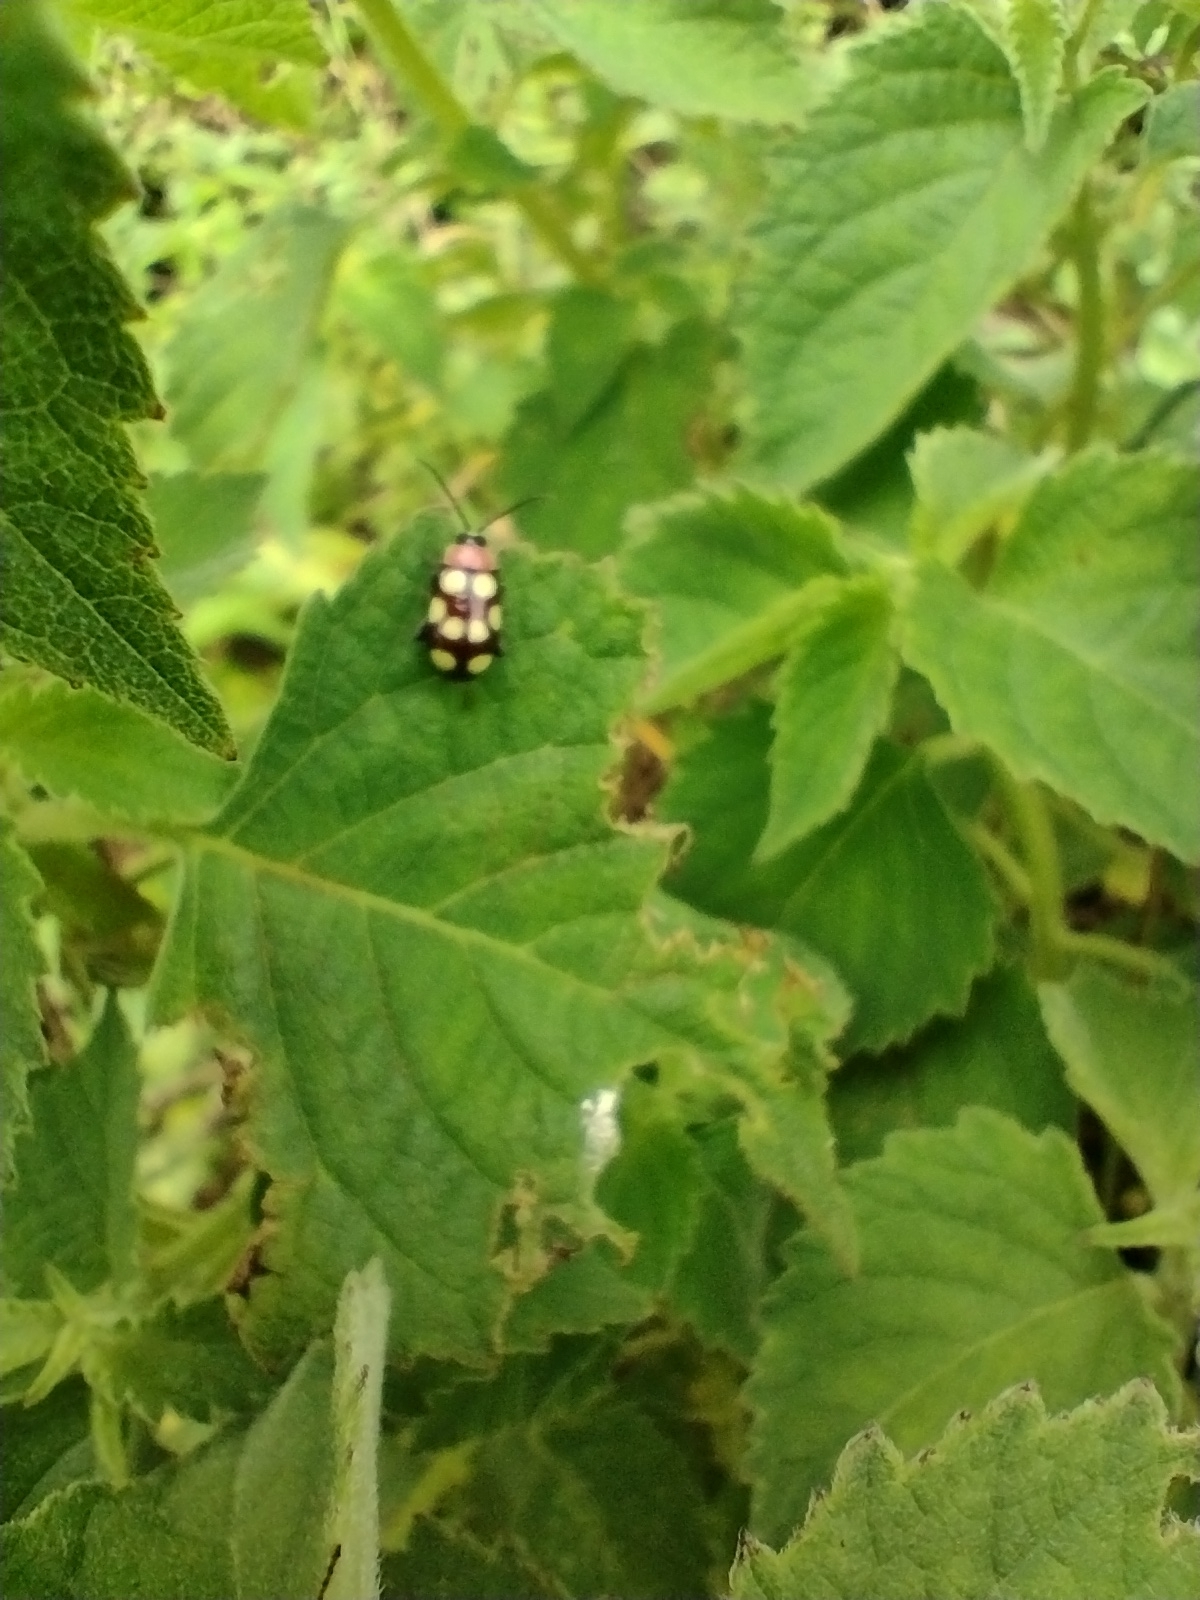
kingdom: Animalia
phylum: Arthropoda
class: Insecta
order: Coleoptera
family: Chrysomelidae
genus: Omophoita
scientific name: Omophoita aequinoctialis
